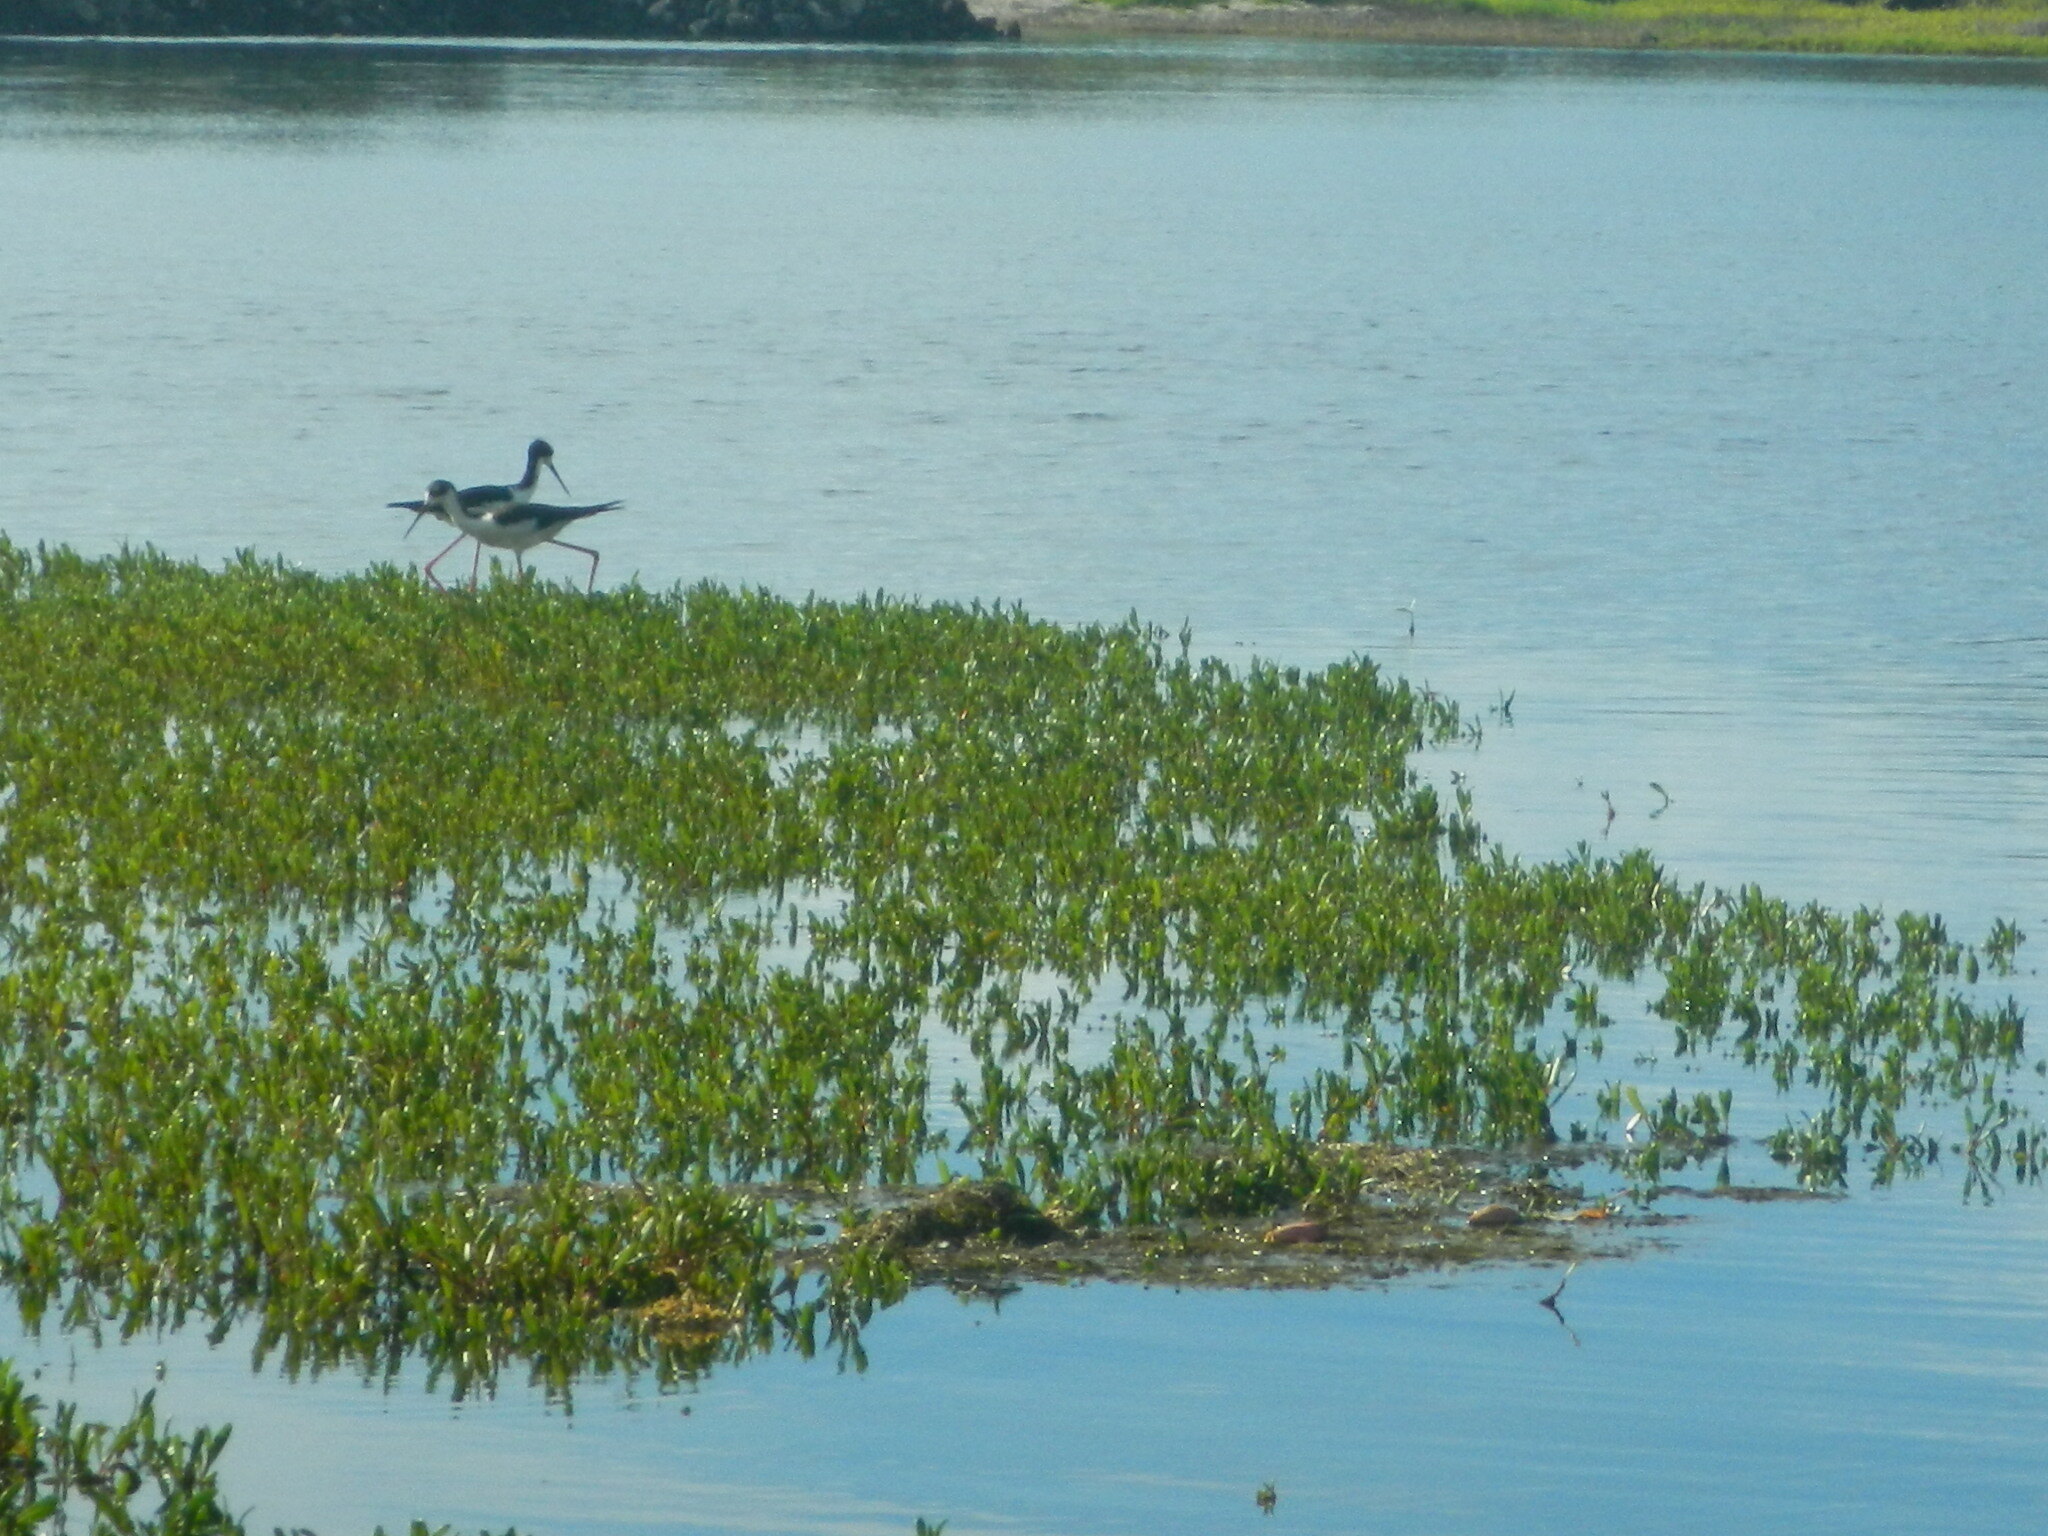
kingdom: Animalia
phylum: Chordata
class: Aves
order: Charadriiformes
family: Recurvirostridae
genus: Himantopus
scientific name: Himantopus mexicanus
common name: Black-necked stilt
